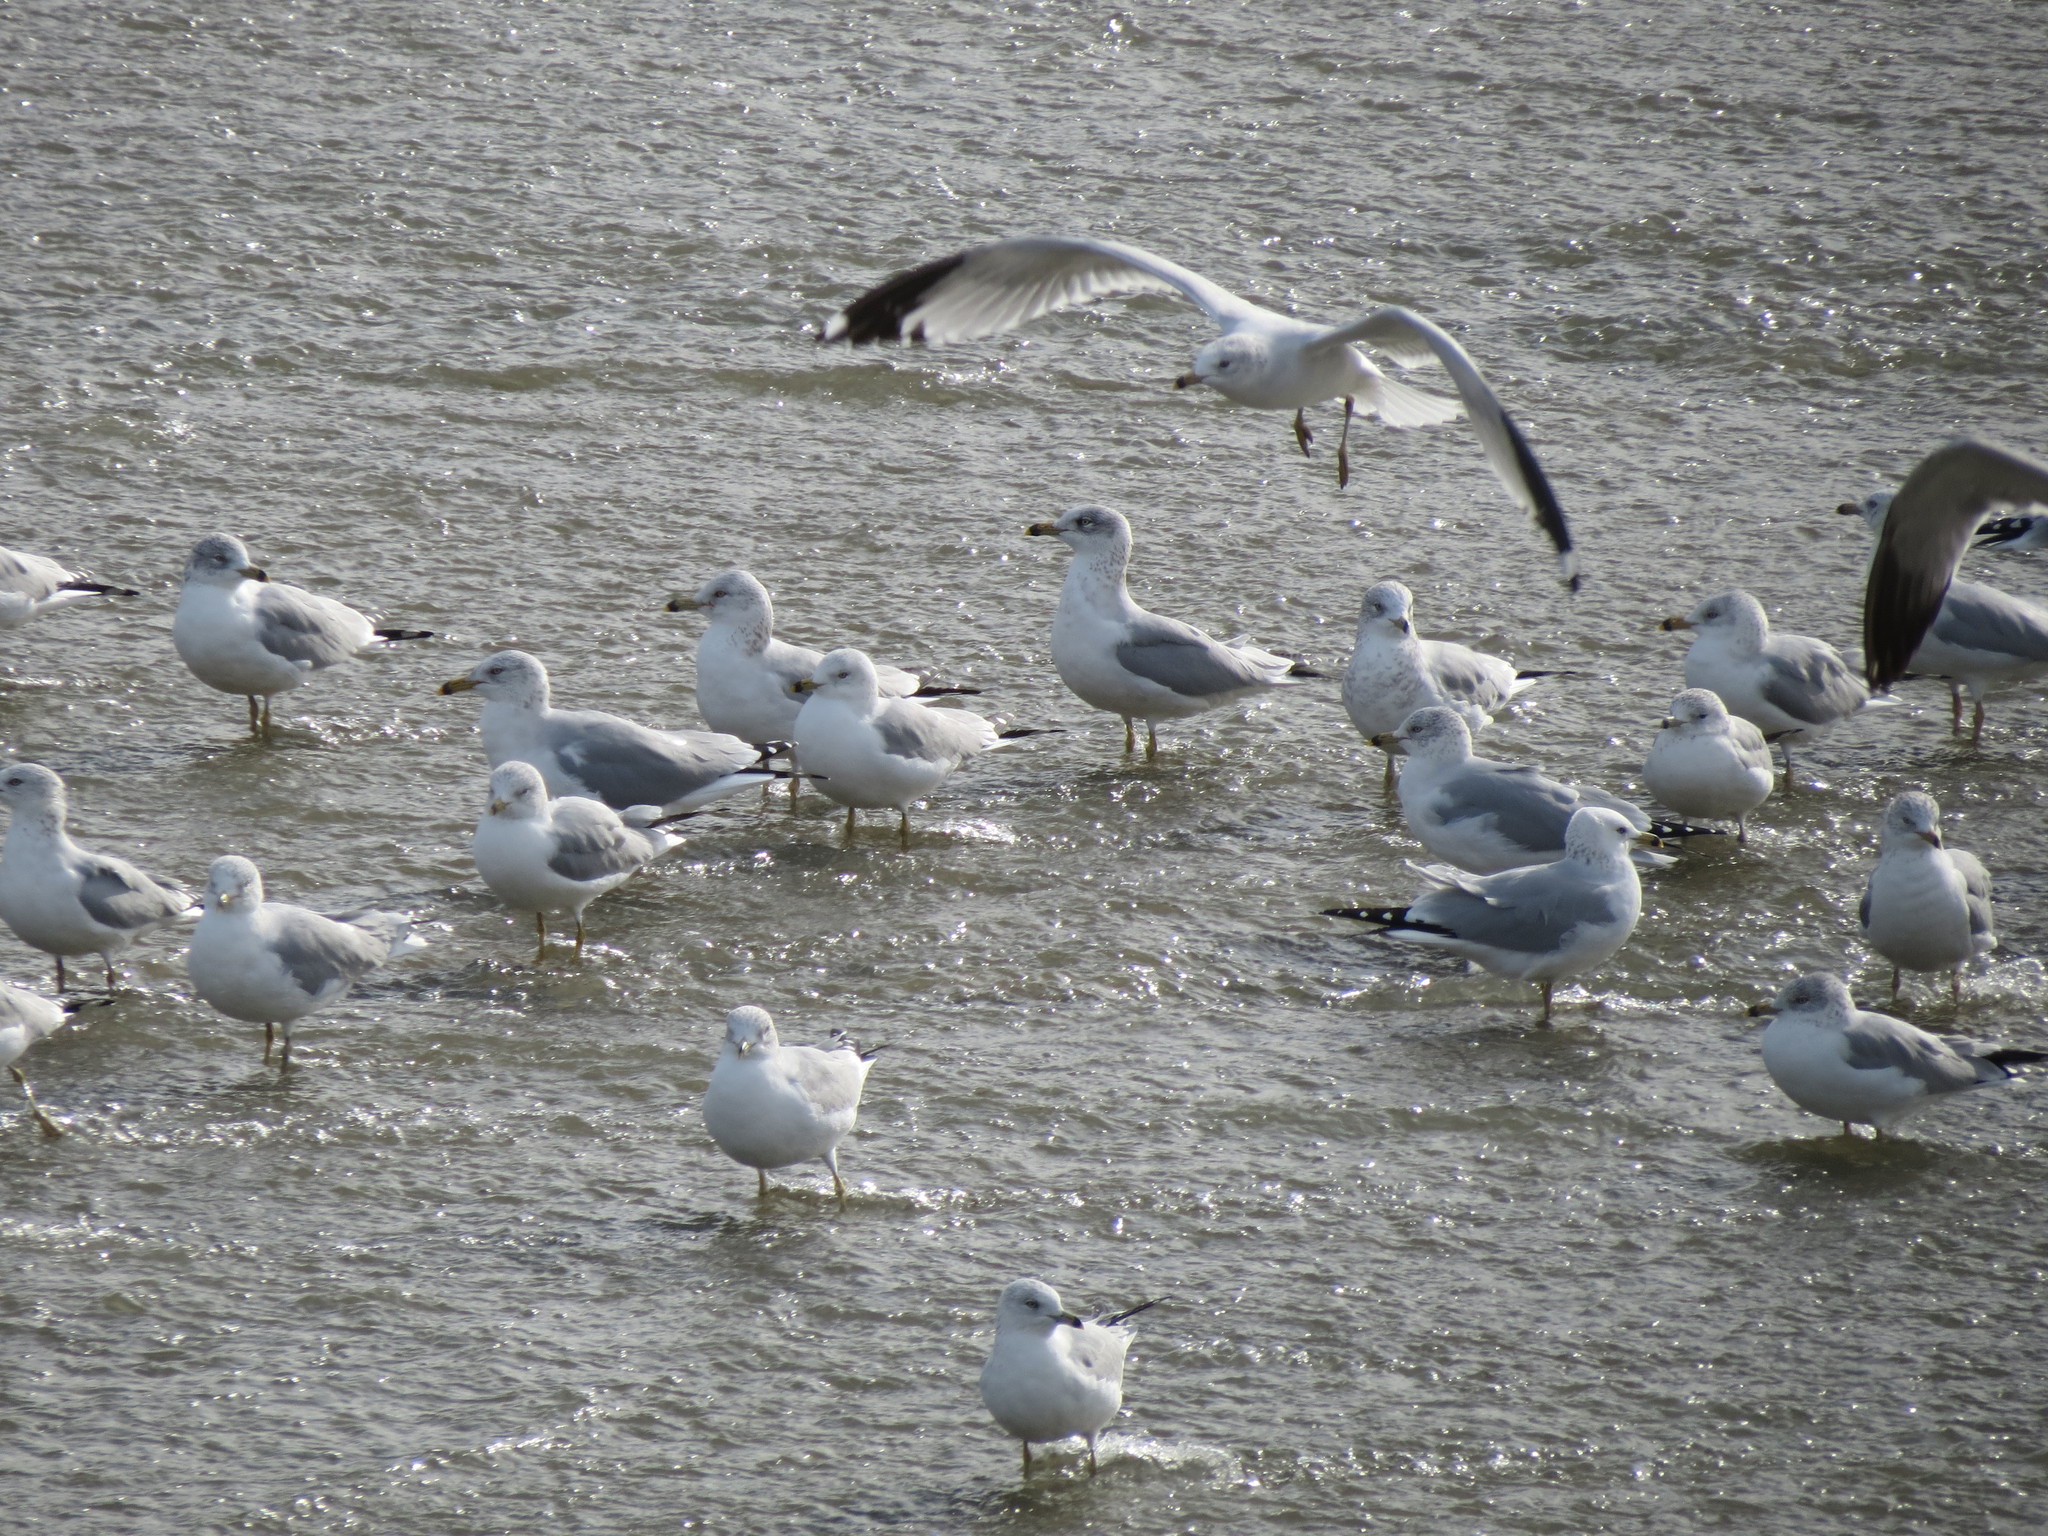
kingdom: Animalia
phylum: Chordata
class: Aves
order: Charadriiformes
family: Laridae
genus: Larus
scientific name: Larus delawarensis
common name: Ring-billed gull
